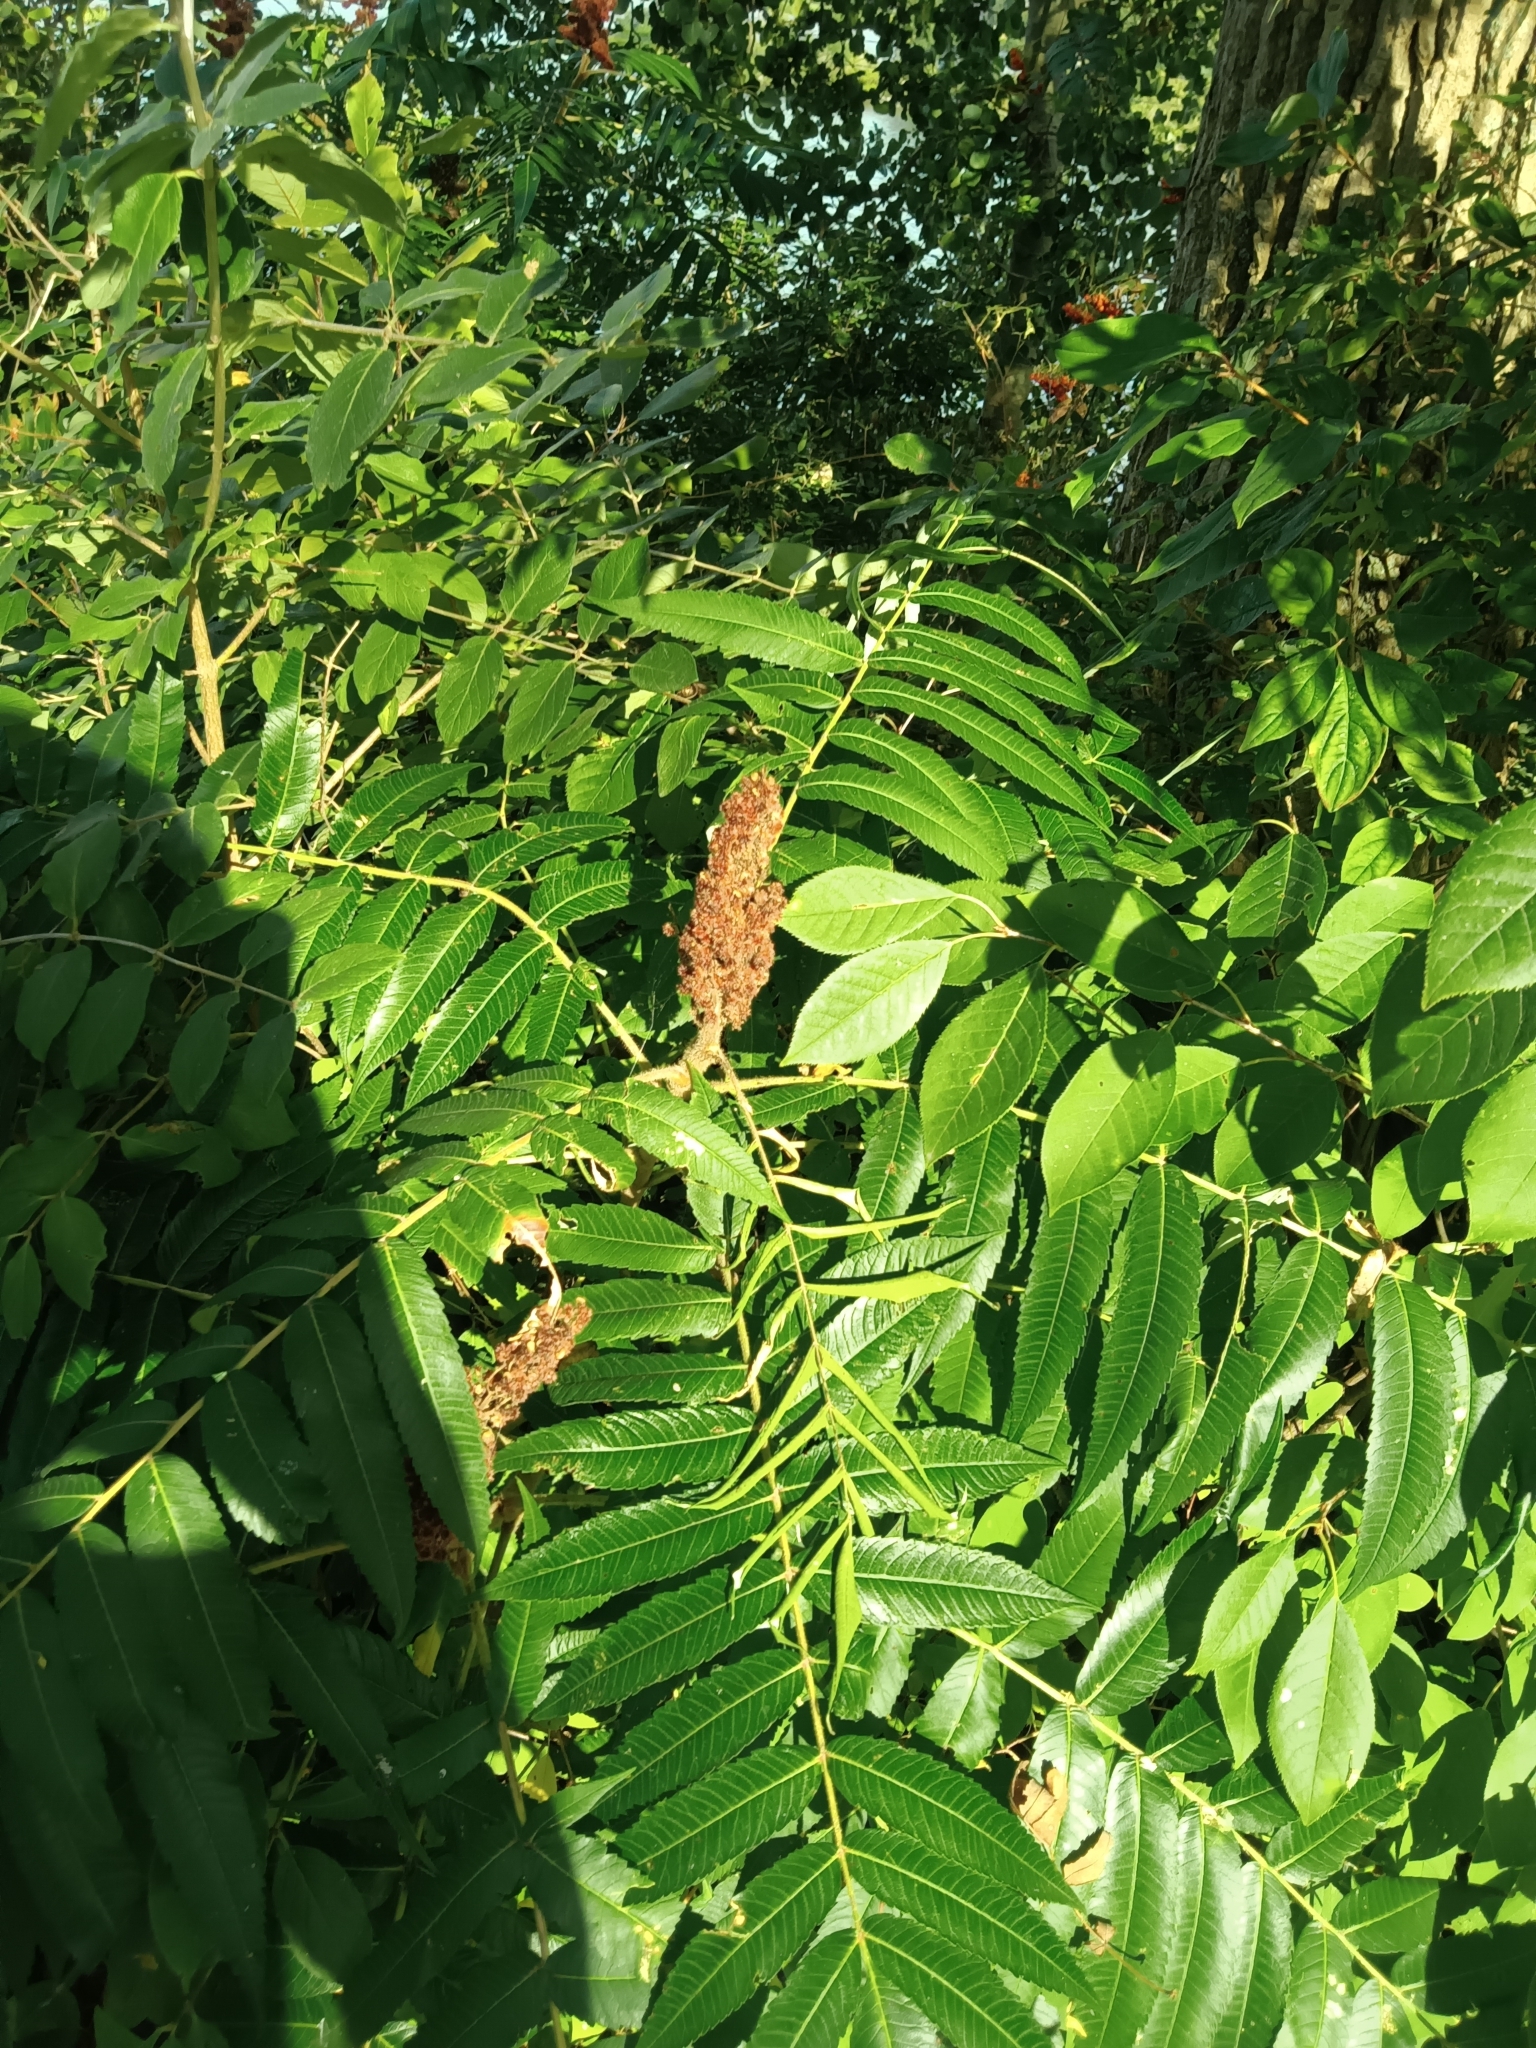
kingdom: Plantae
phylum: Tracheophyta
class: Magnoliopsida
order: Sapindales
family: Anacardiaceae
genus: Rhus
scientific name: Rhus typhina
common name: Staghorn sumac
